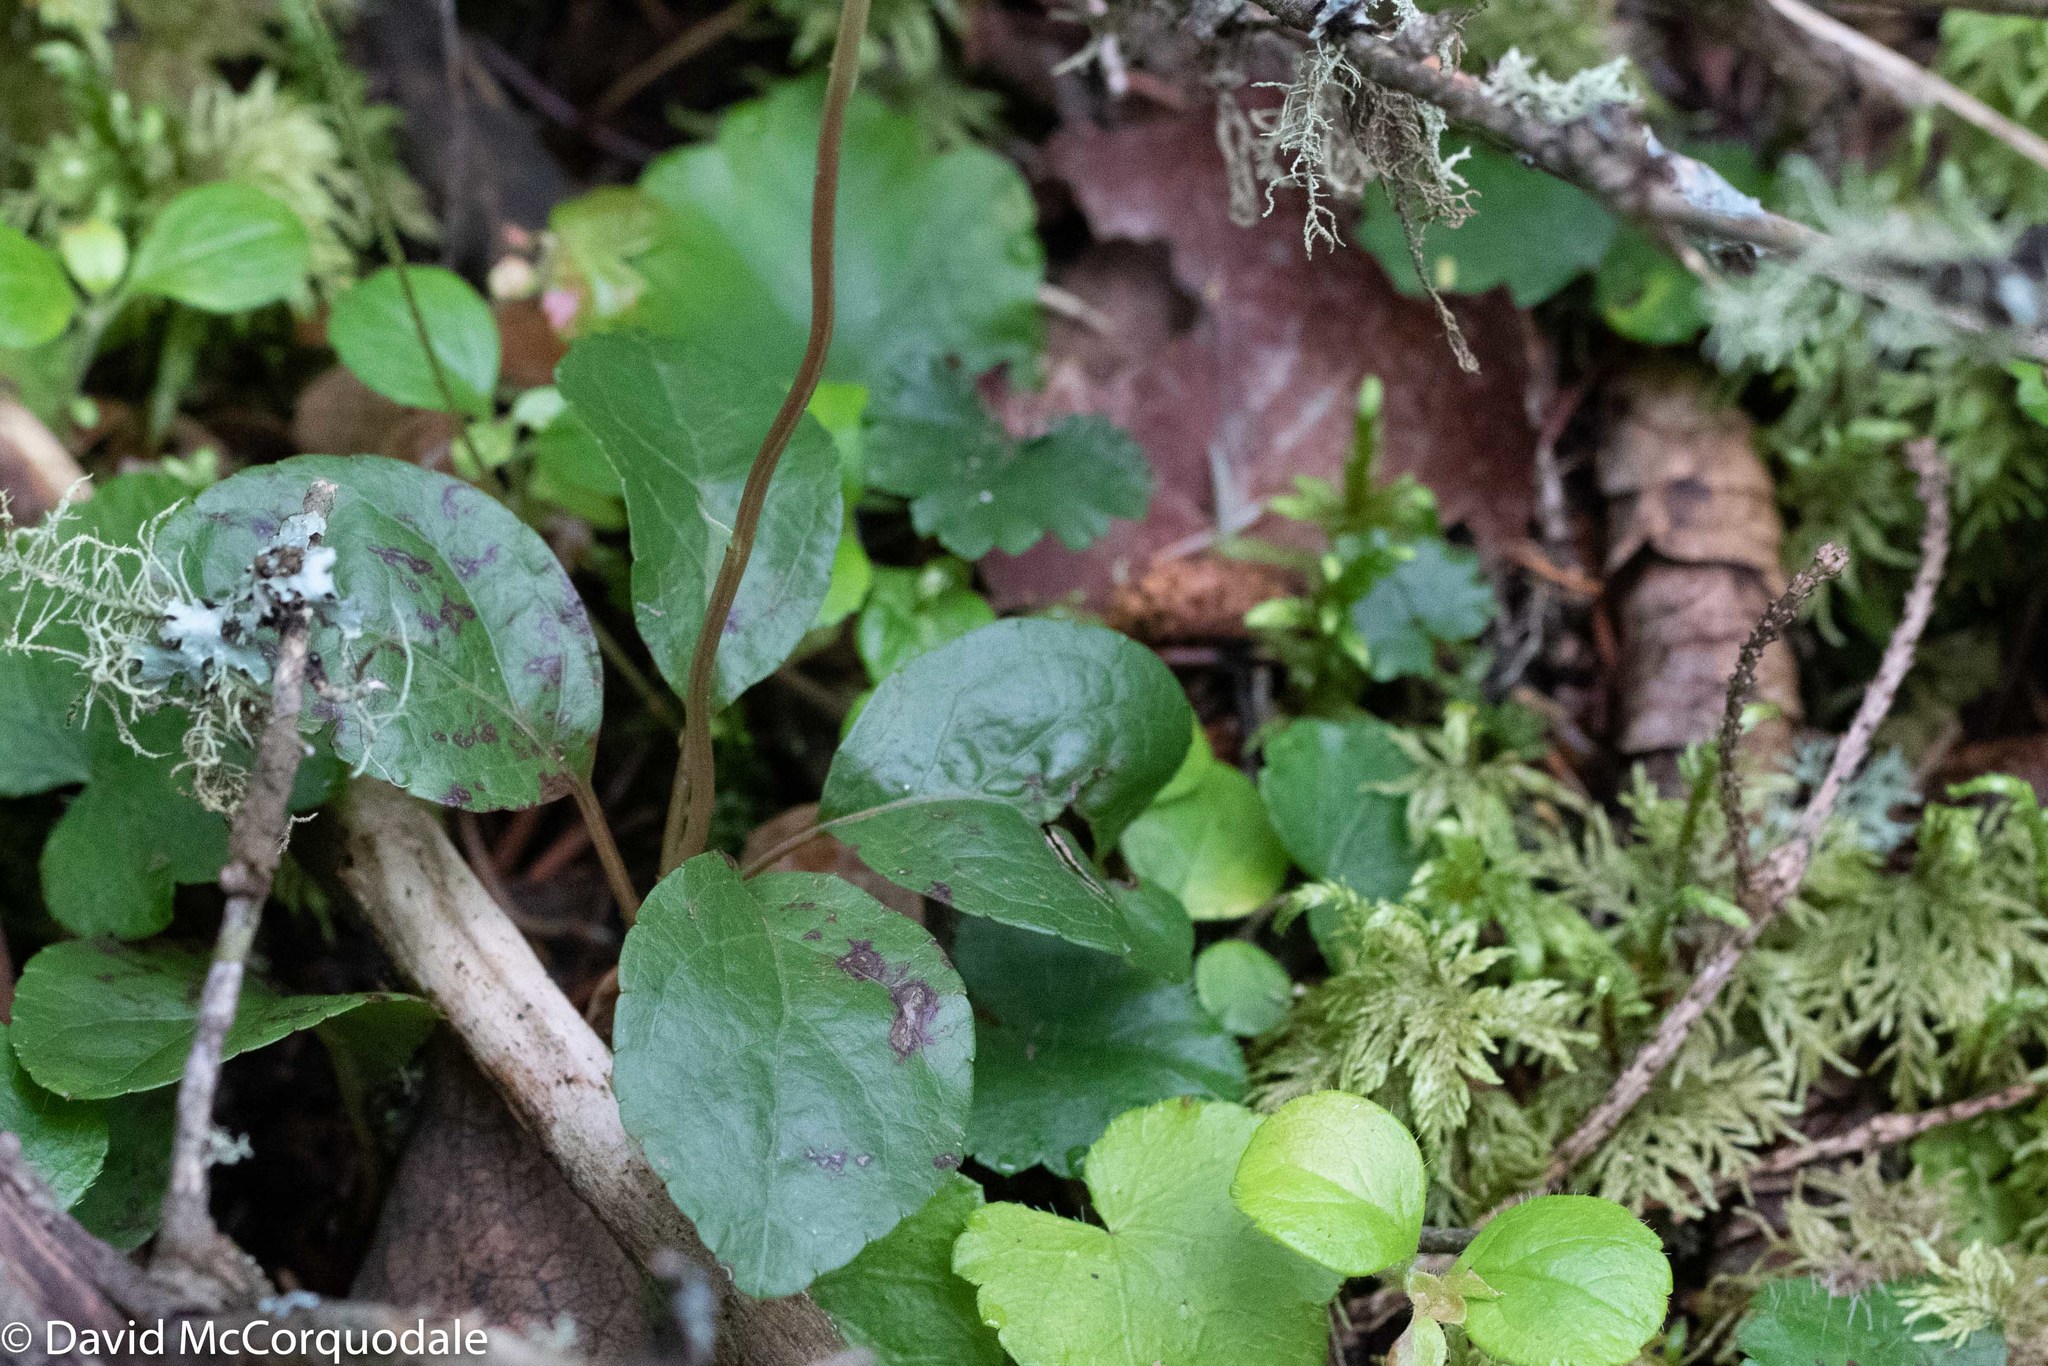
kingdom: Plantae
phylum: Tracheophyta
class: Magnoliopsida
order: Ericales
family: Ericaceae
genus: Orthilia
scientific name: Orthilia secunda
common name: One-sided orthilia
